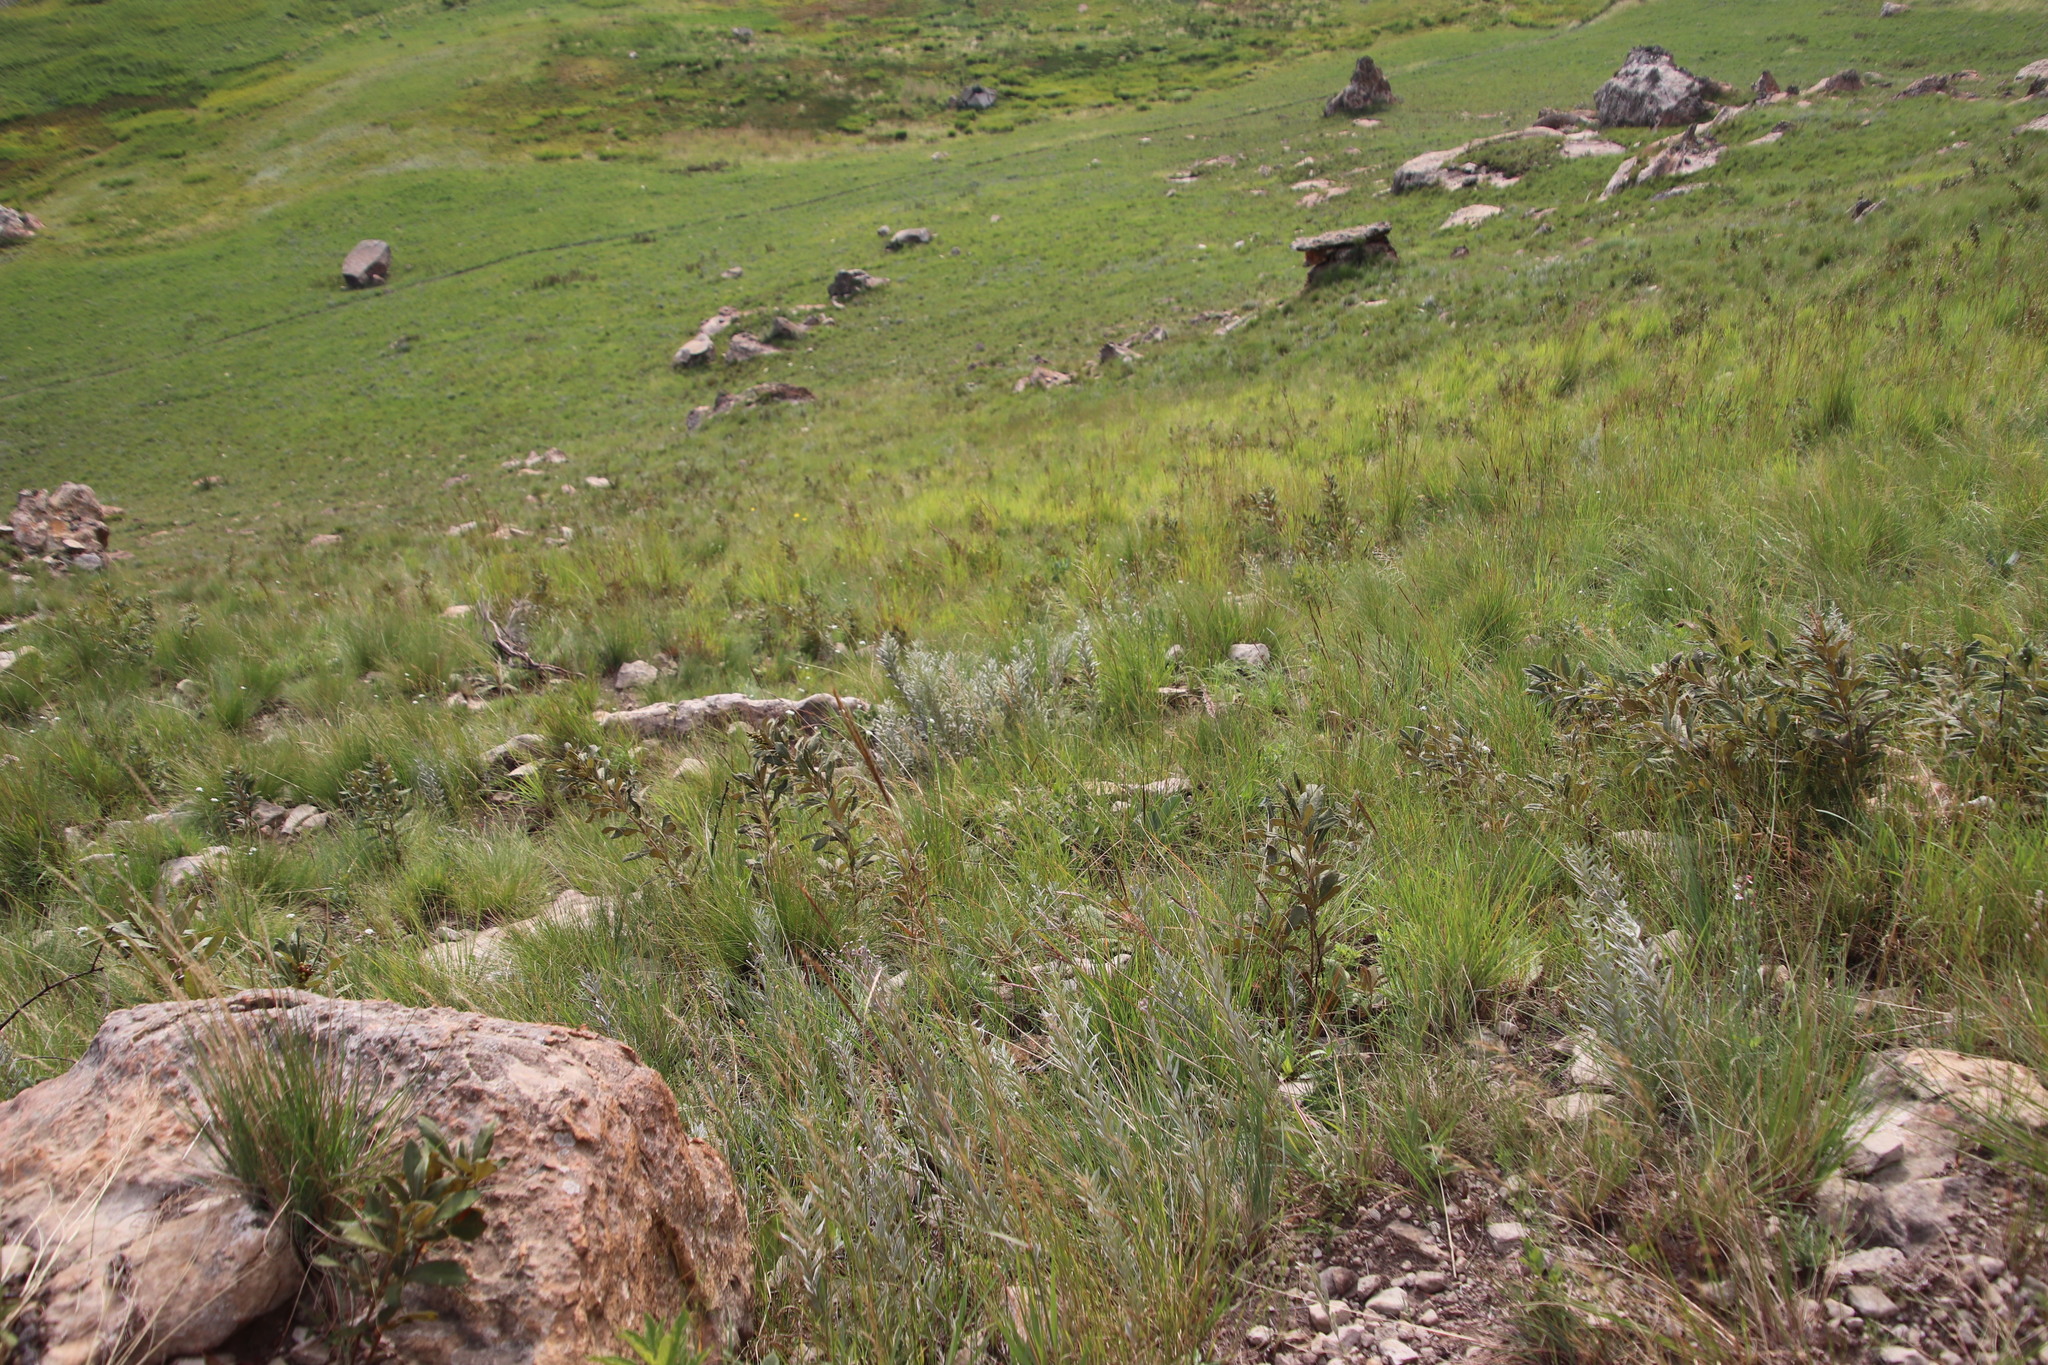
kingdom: Plantae
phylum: Tracheophyta
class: Magnoliopsida
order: Sapindales
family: Anacardiaceae
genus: Searsia
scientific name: Searsia discolor
